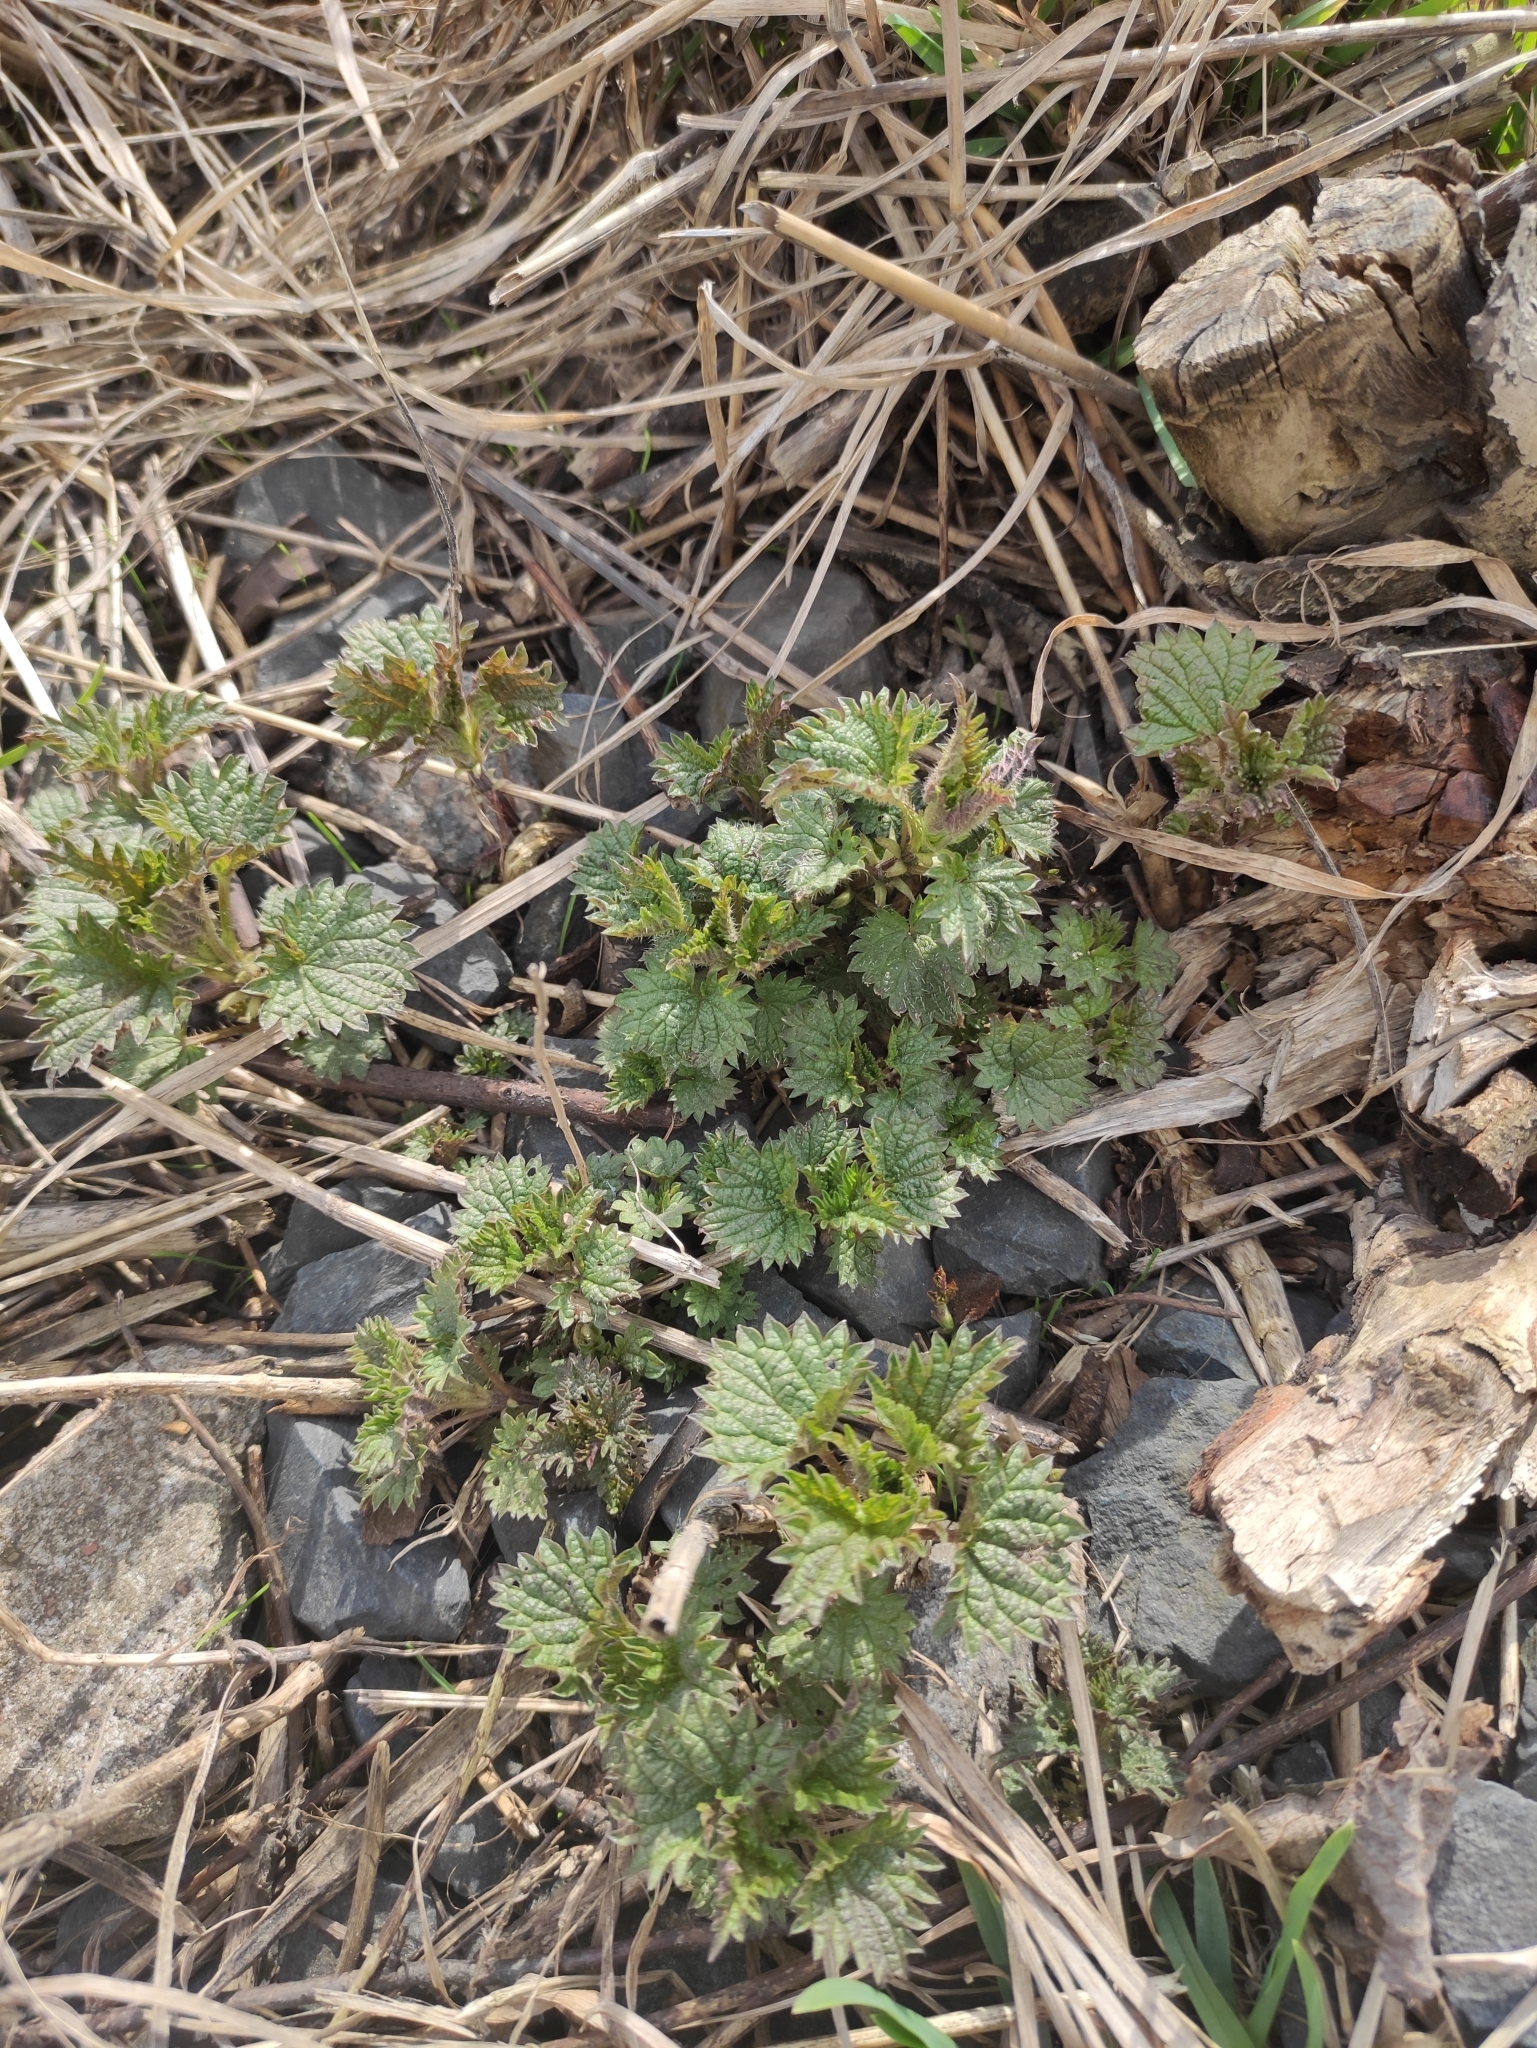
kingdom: Plantae
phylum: Tracheophyta
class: Magnoliopsida
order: Rosales
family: Urticaceae
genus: Urtica
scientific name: Urtica dioica
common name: Common nettle
